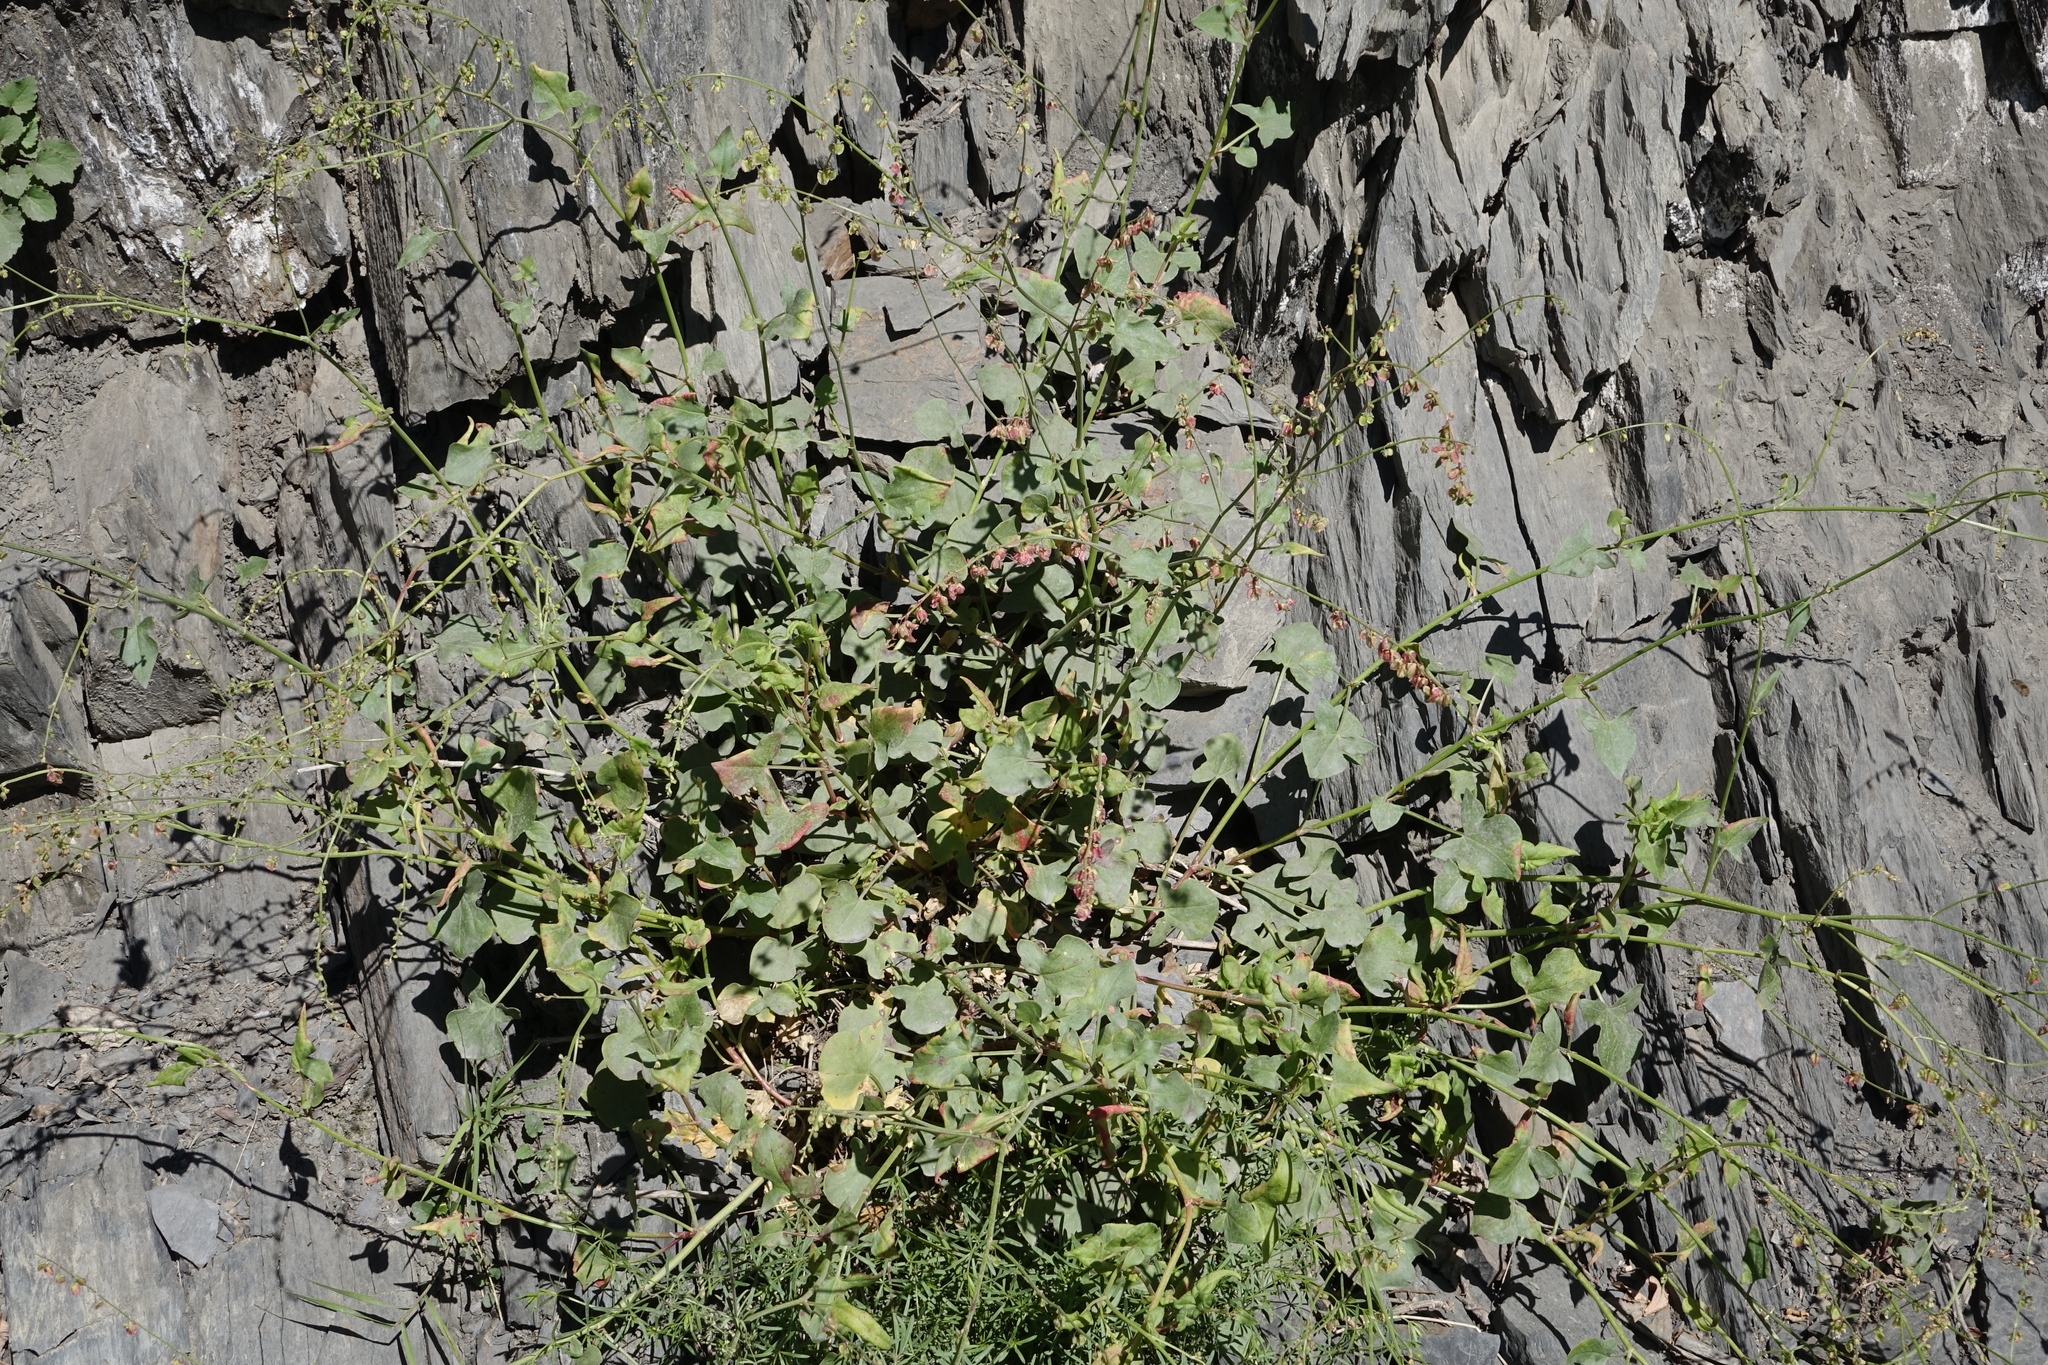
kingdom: Plantae
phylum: Tracheophyta
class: Magnoliopsida
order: Caryophyllales
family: Polygonaceae
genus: Rumex
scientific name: Rumex scutatus
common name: French sorrel
